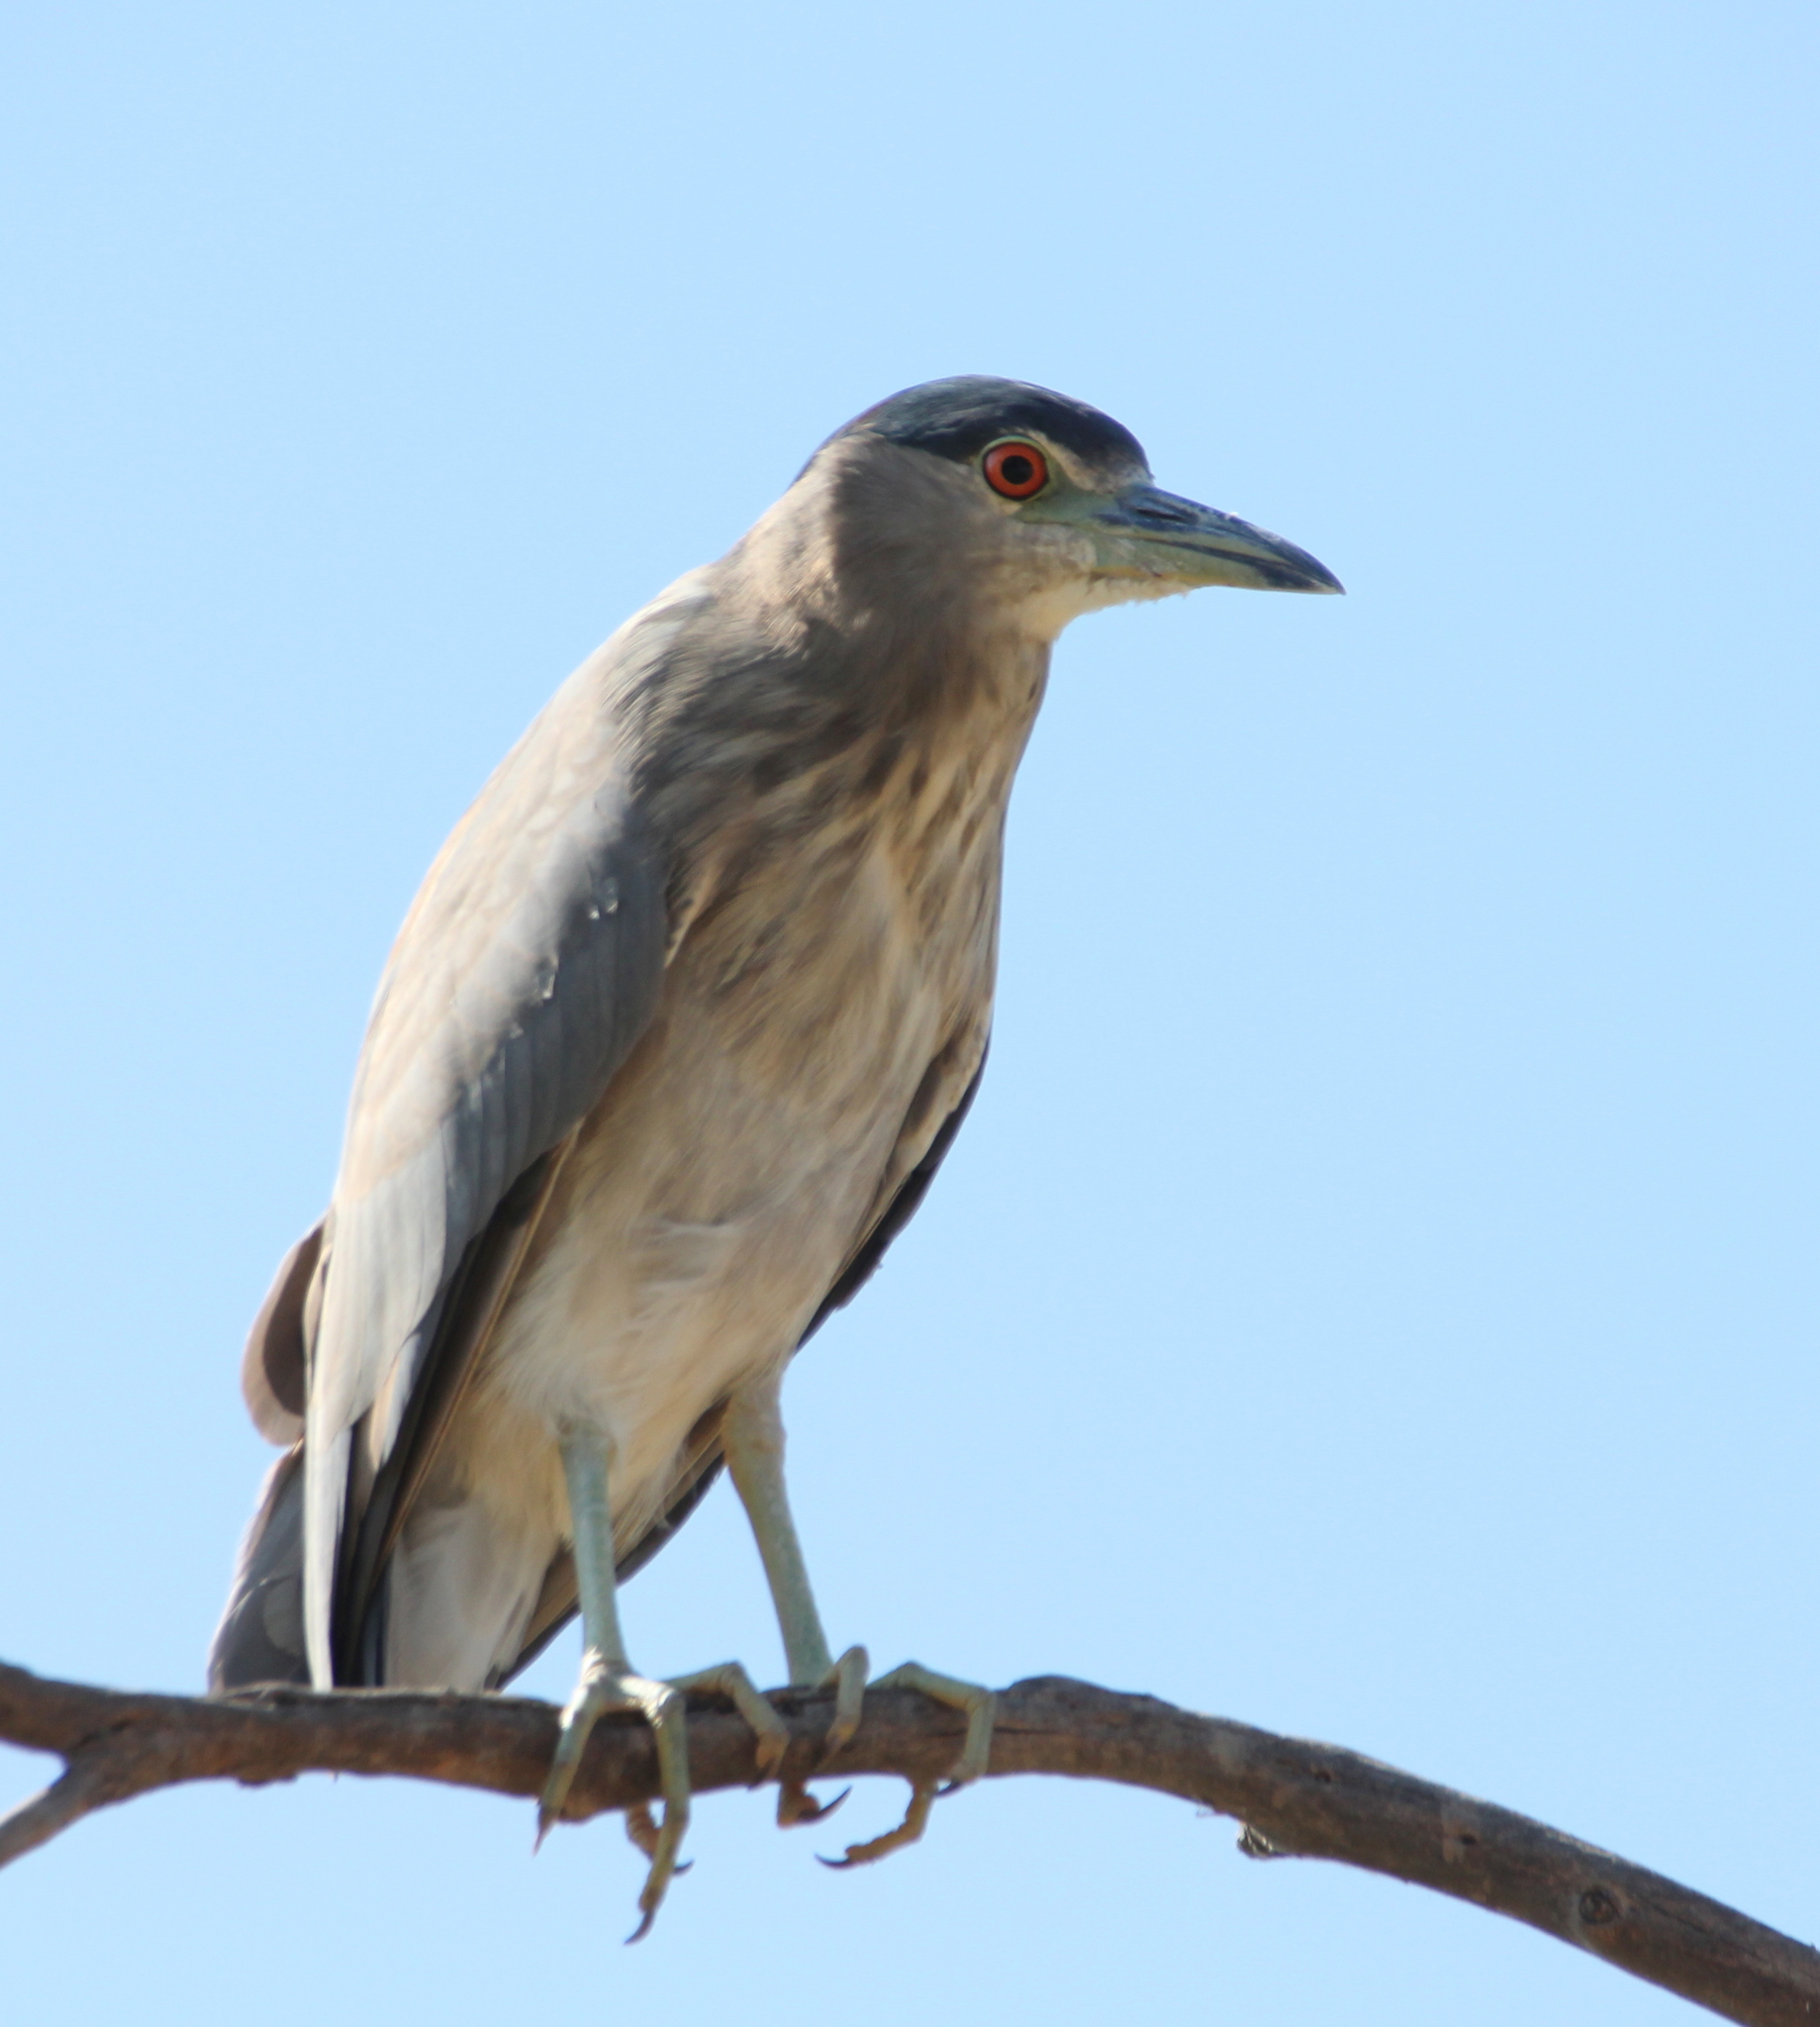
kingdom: Animalia
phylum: Chordata
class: Aves
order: Pelecaniformes
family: Ardeidae
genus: Nycticorax
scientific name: Nycticorax nycticorax
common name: Black-crowned night heron
